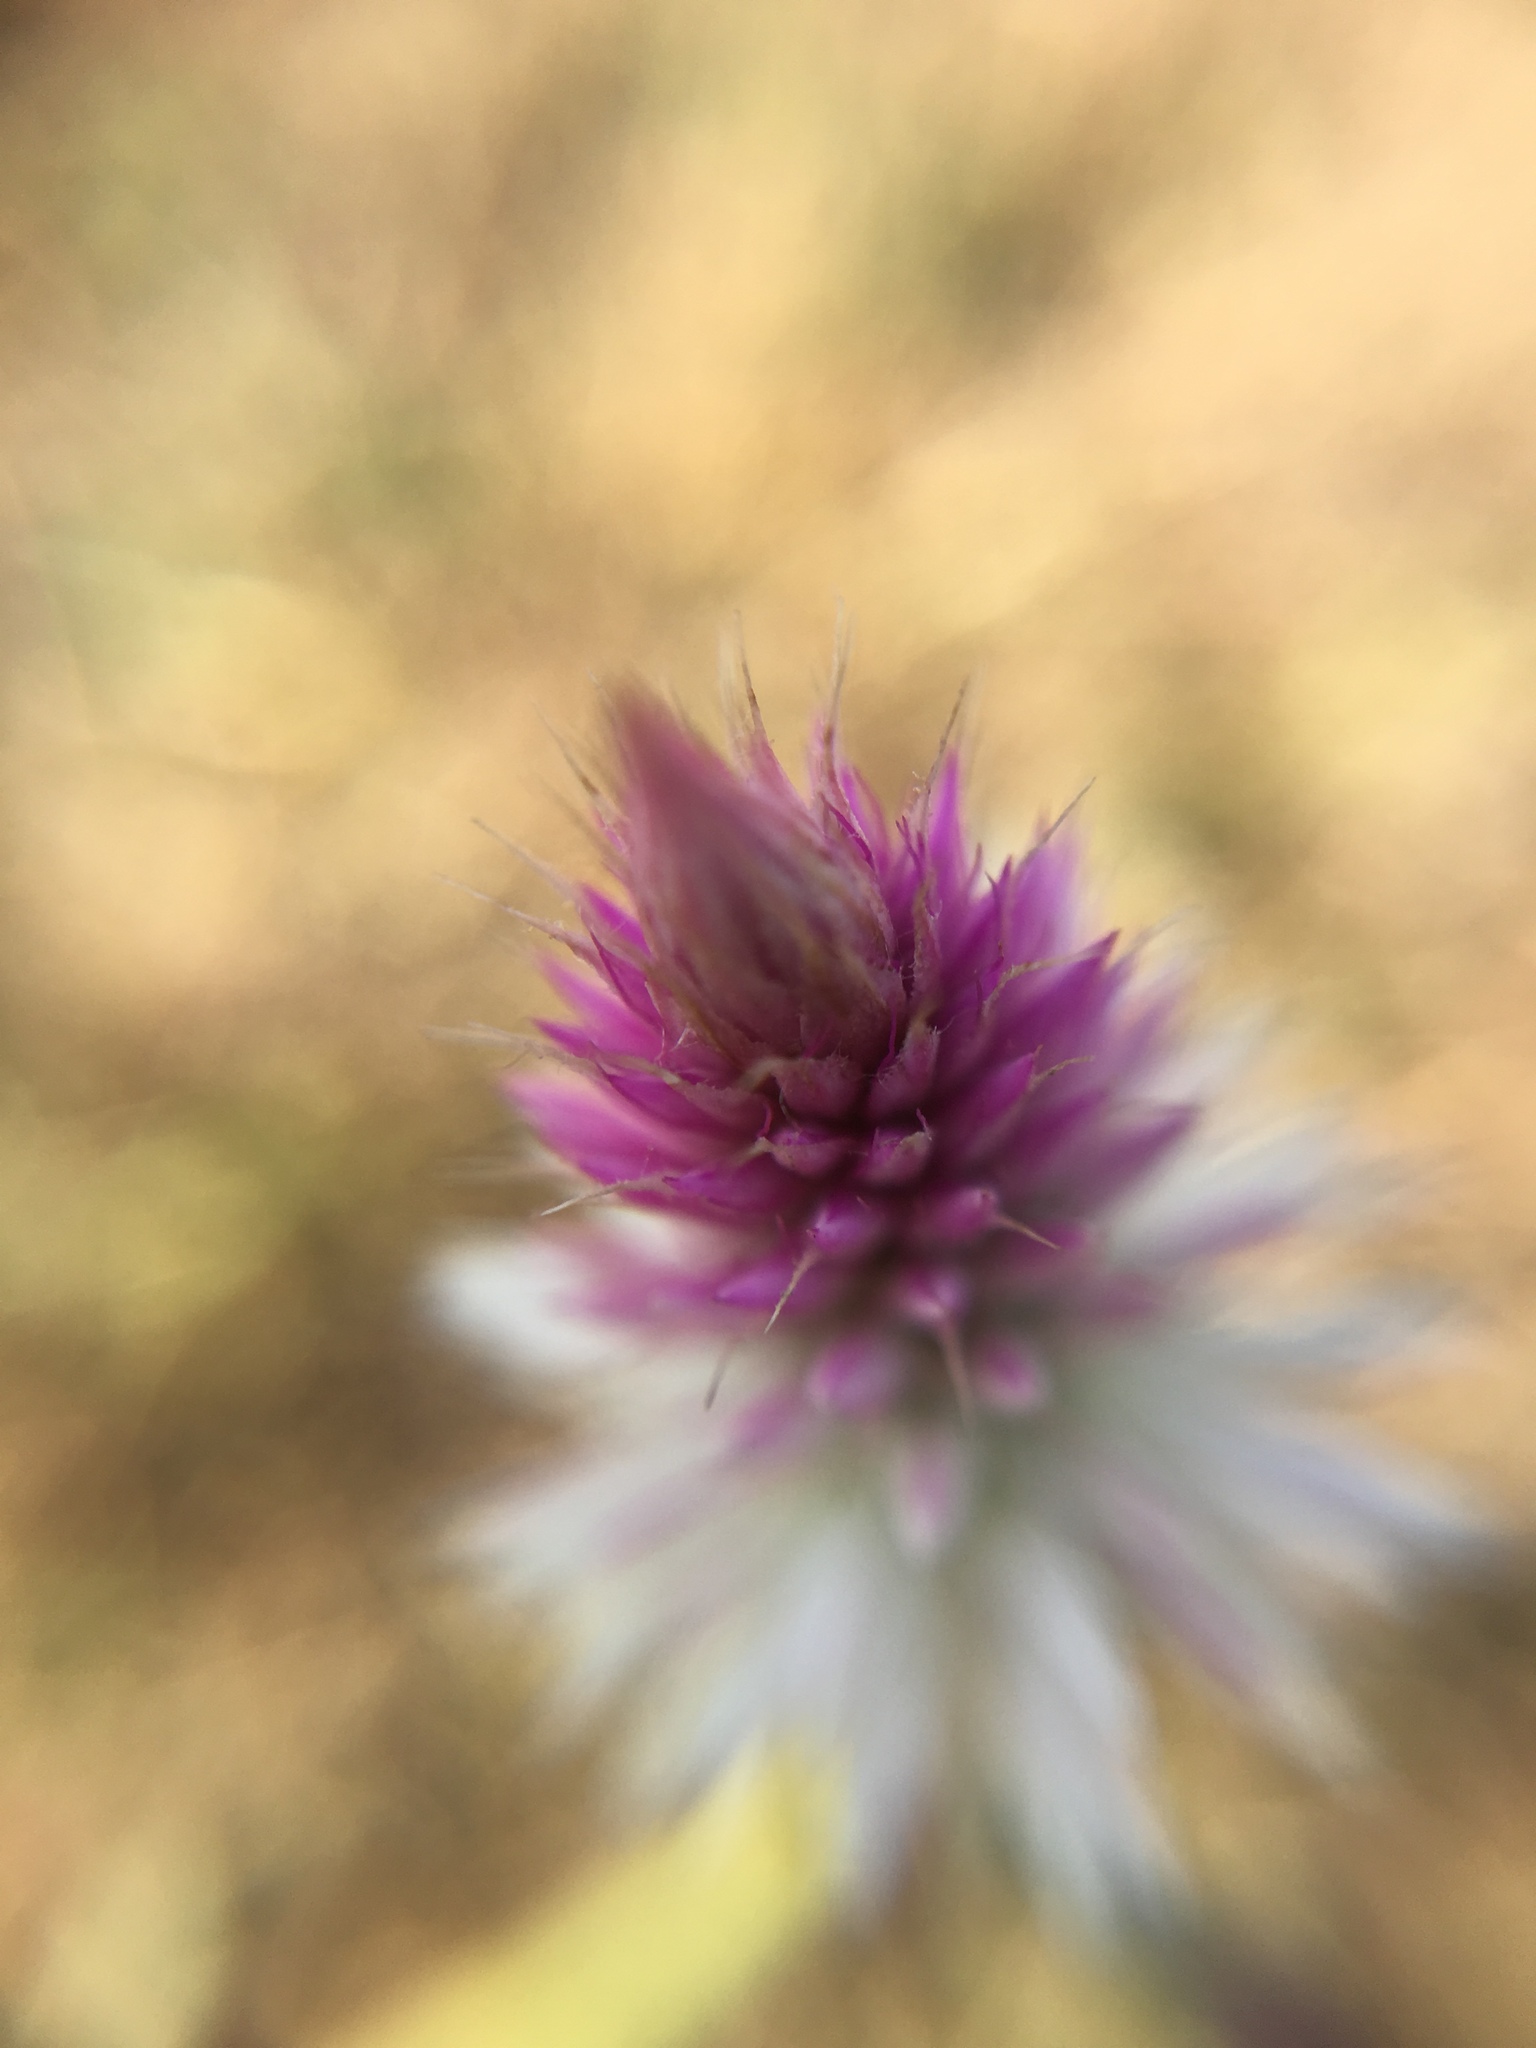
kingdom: Plantae
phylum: Tracheophyta
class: Magnoliopsida
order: Caryophyllales
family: Amaranthaceae
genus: Celosia
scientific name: Celosia argentea
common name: Feather cockscomb
